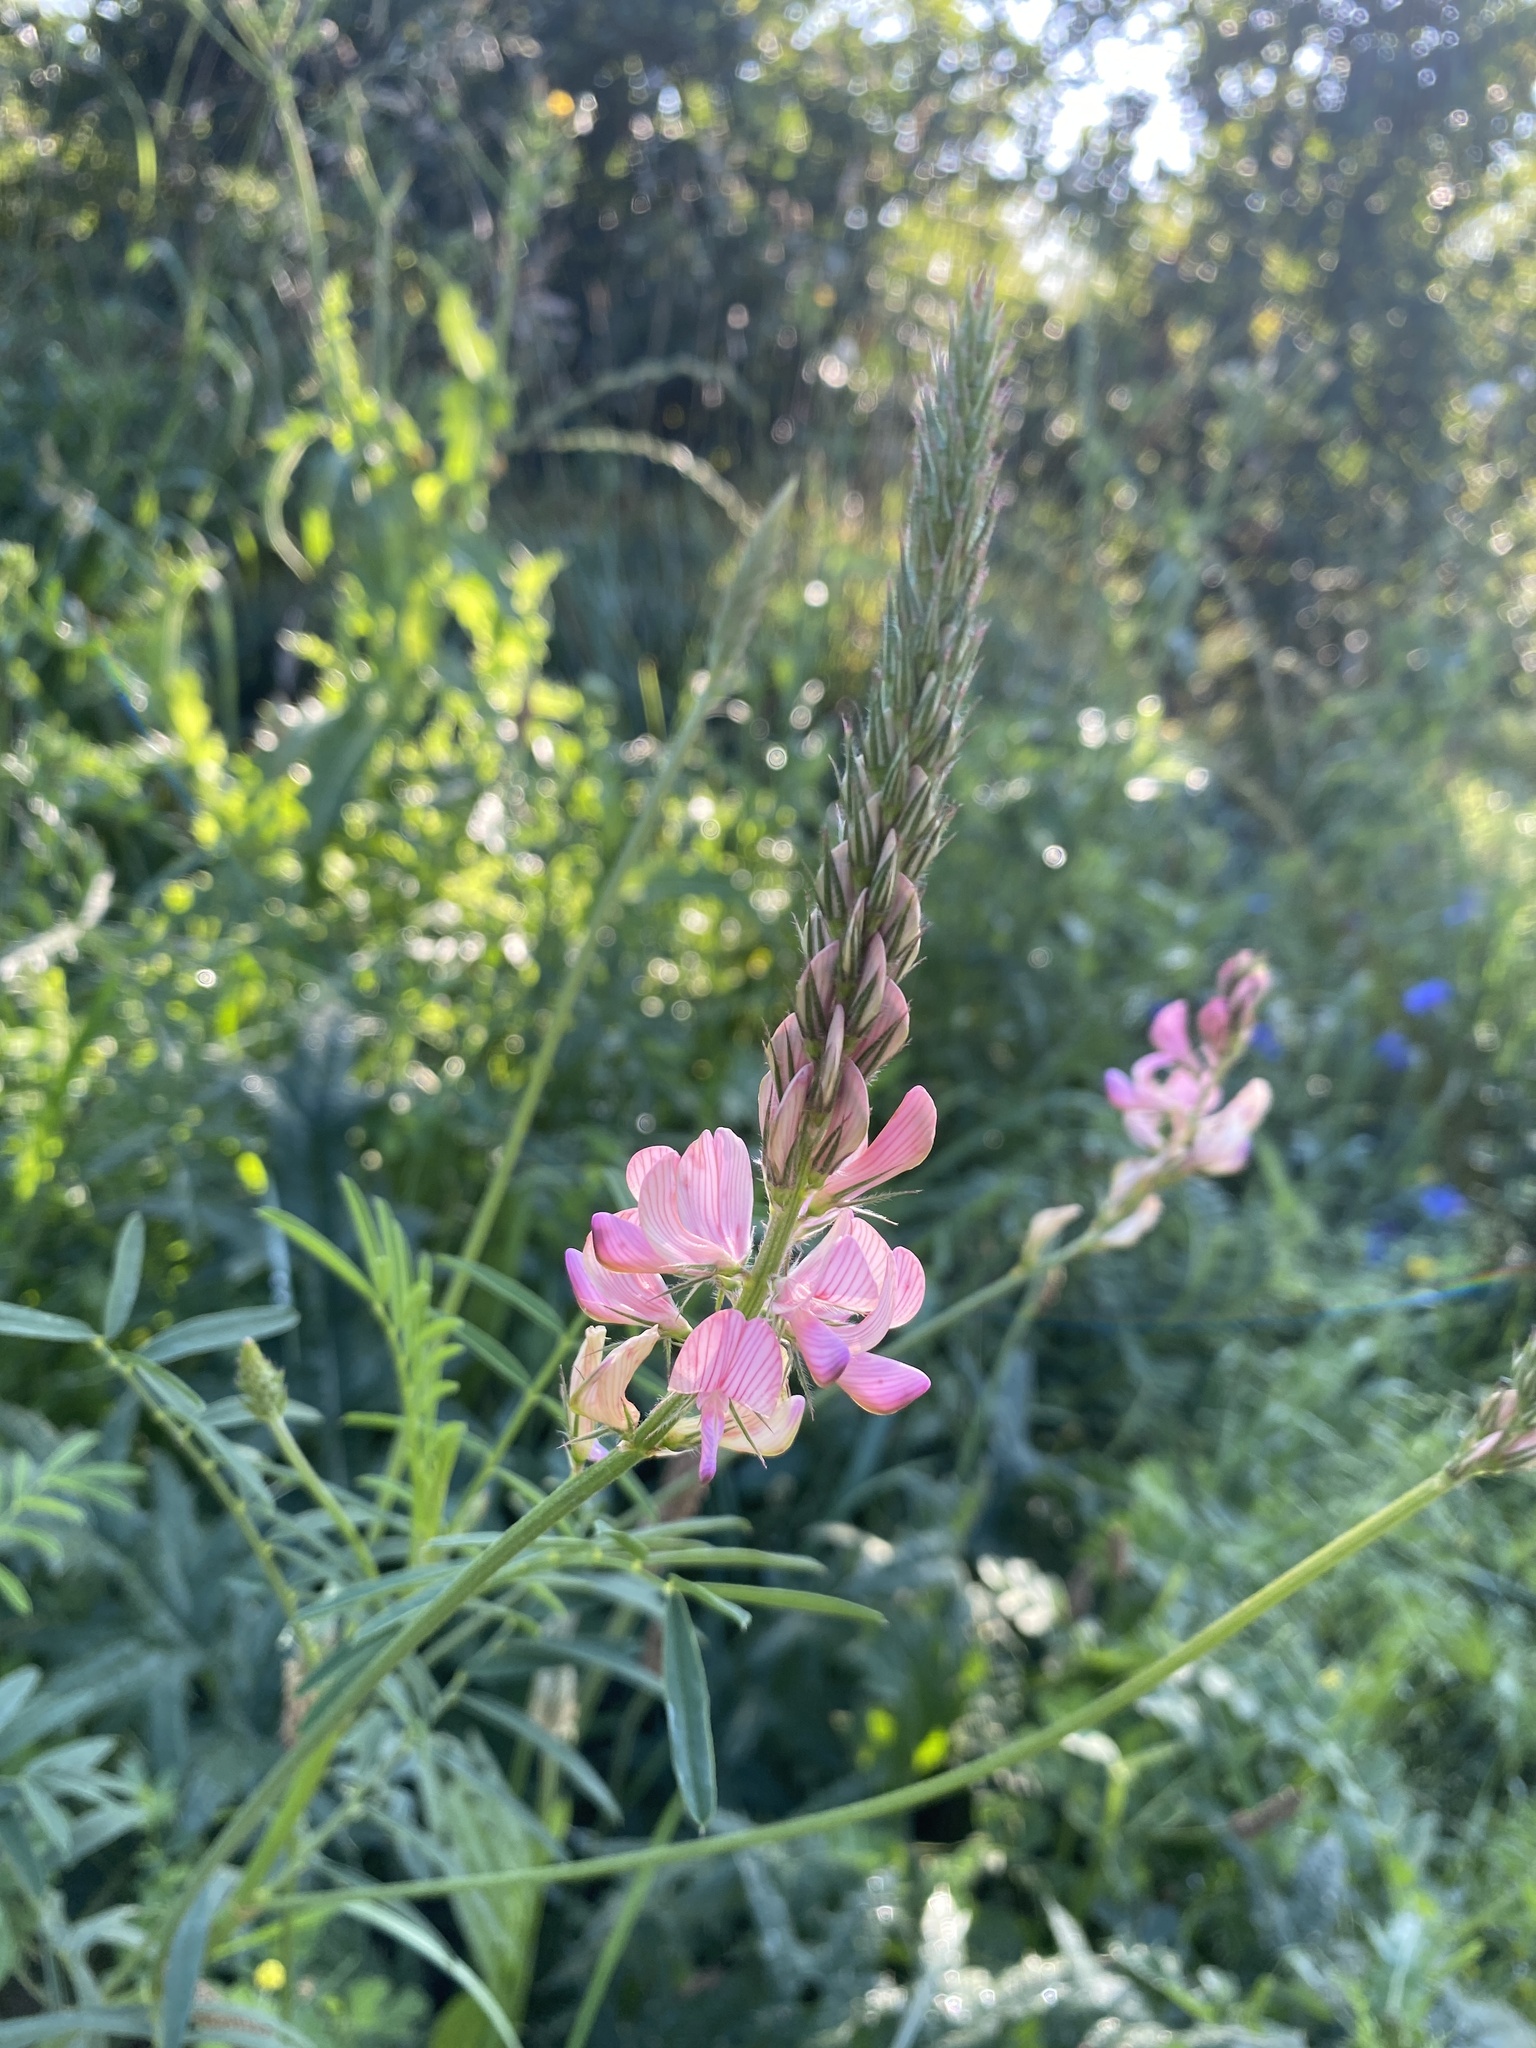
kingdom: Plantae
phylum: Tracheophyta
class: Magnoliopsida
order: Fabales
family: Fabaceae
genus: Onobrychis
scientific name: Onobrychis viciifolia
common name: Sainfoin
